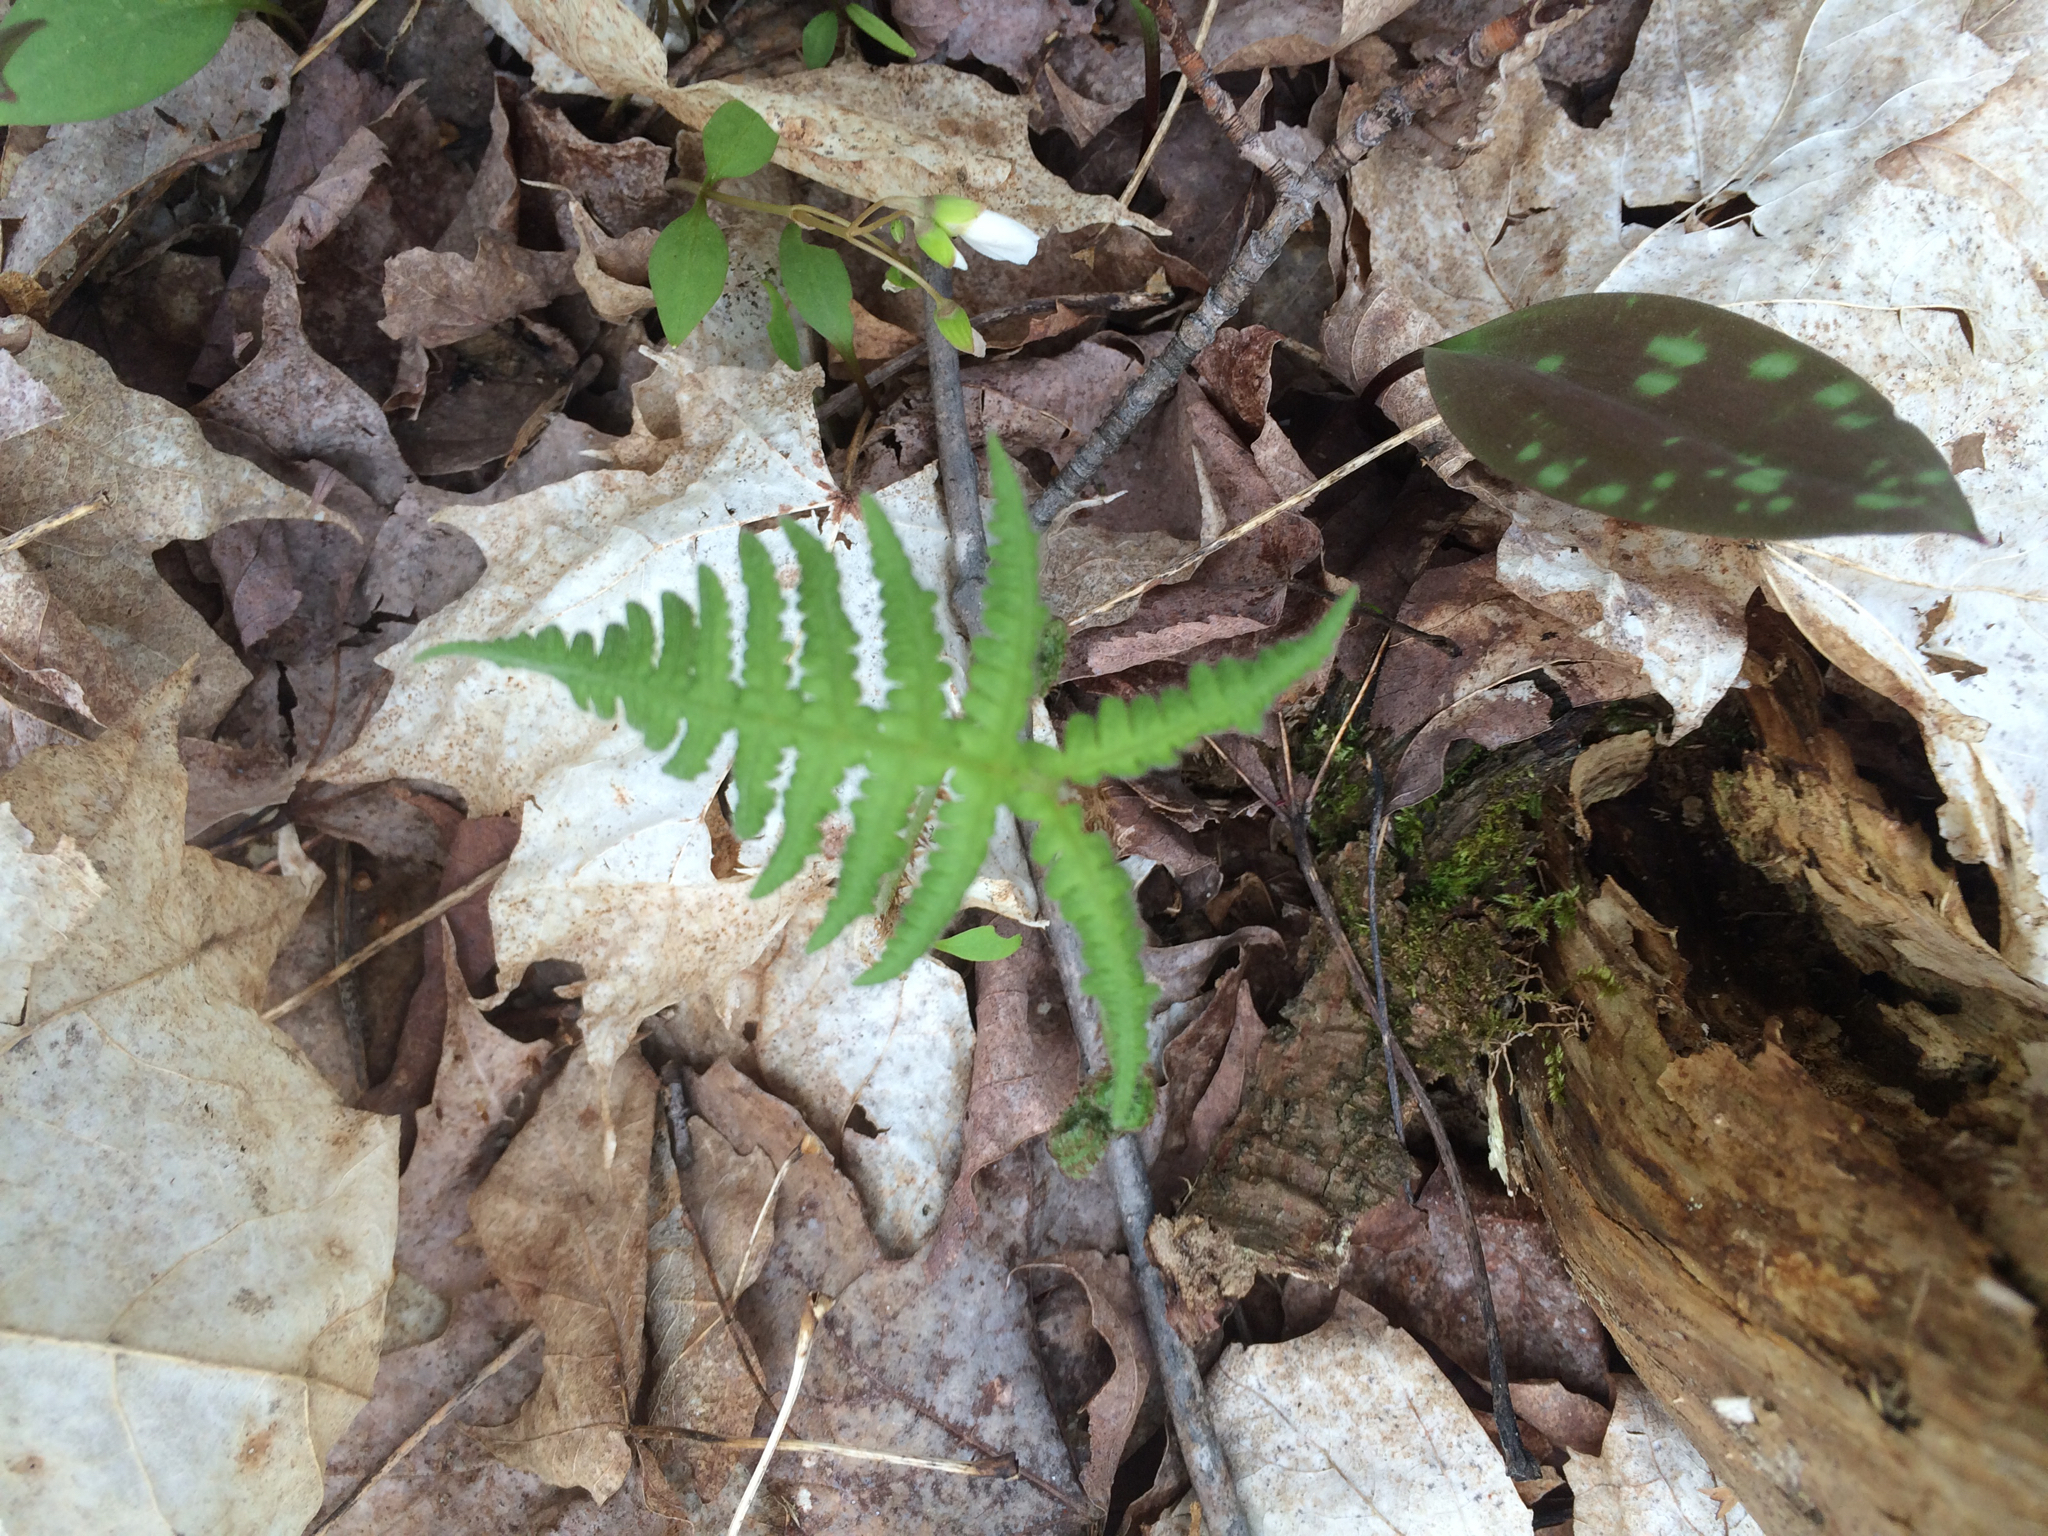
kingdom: Plantae
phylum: Tracheophyta
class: Polypodiopsida
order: Polypodiales
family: Thelypteridaceae
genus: Phegopteris
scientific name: Phegopteris connectilis
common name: Beech fern
